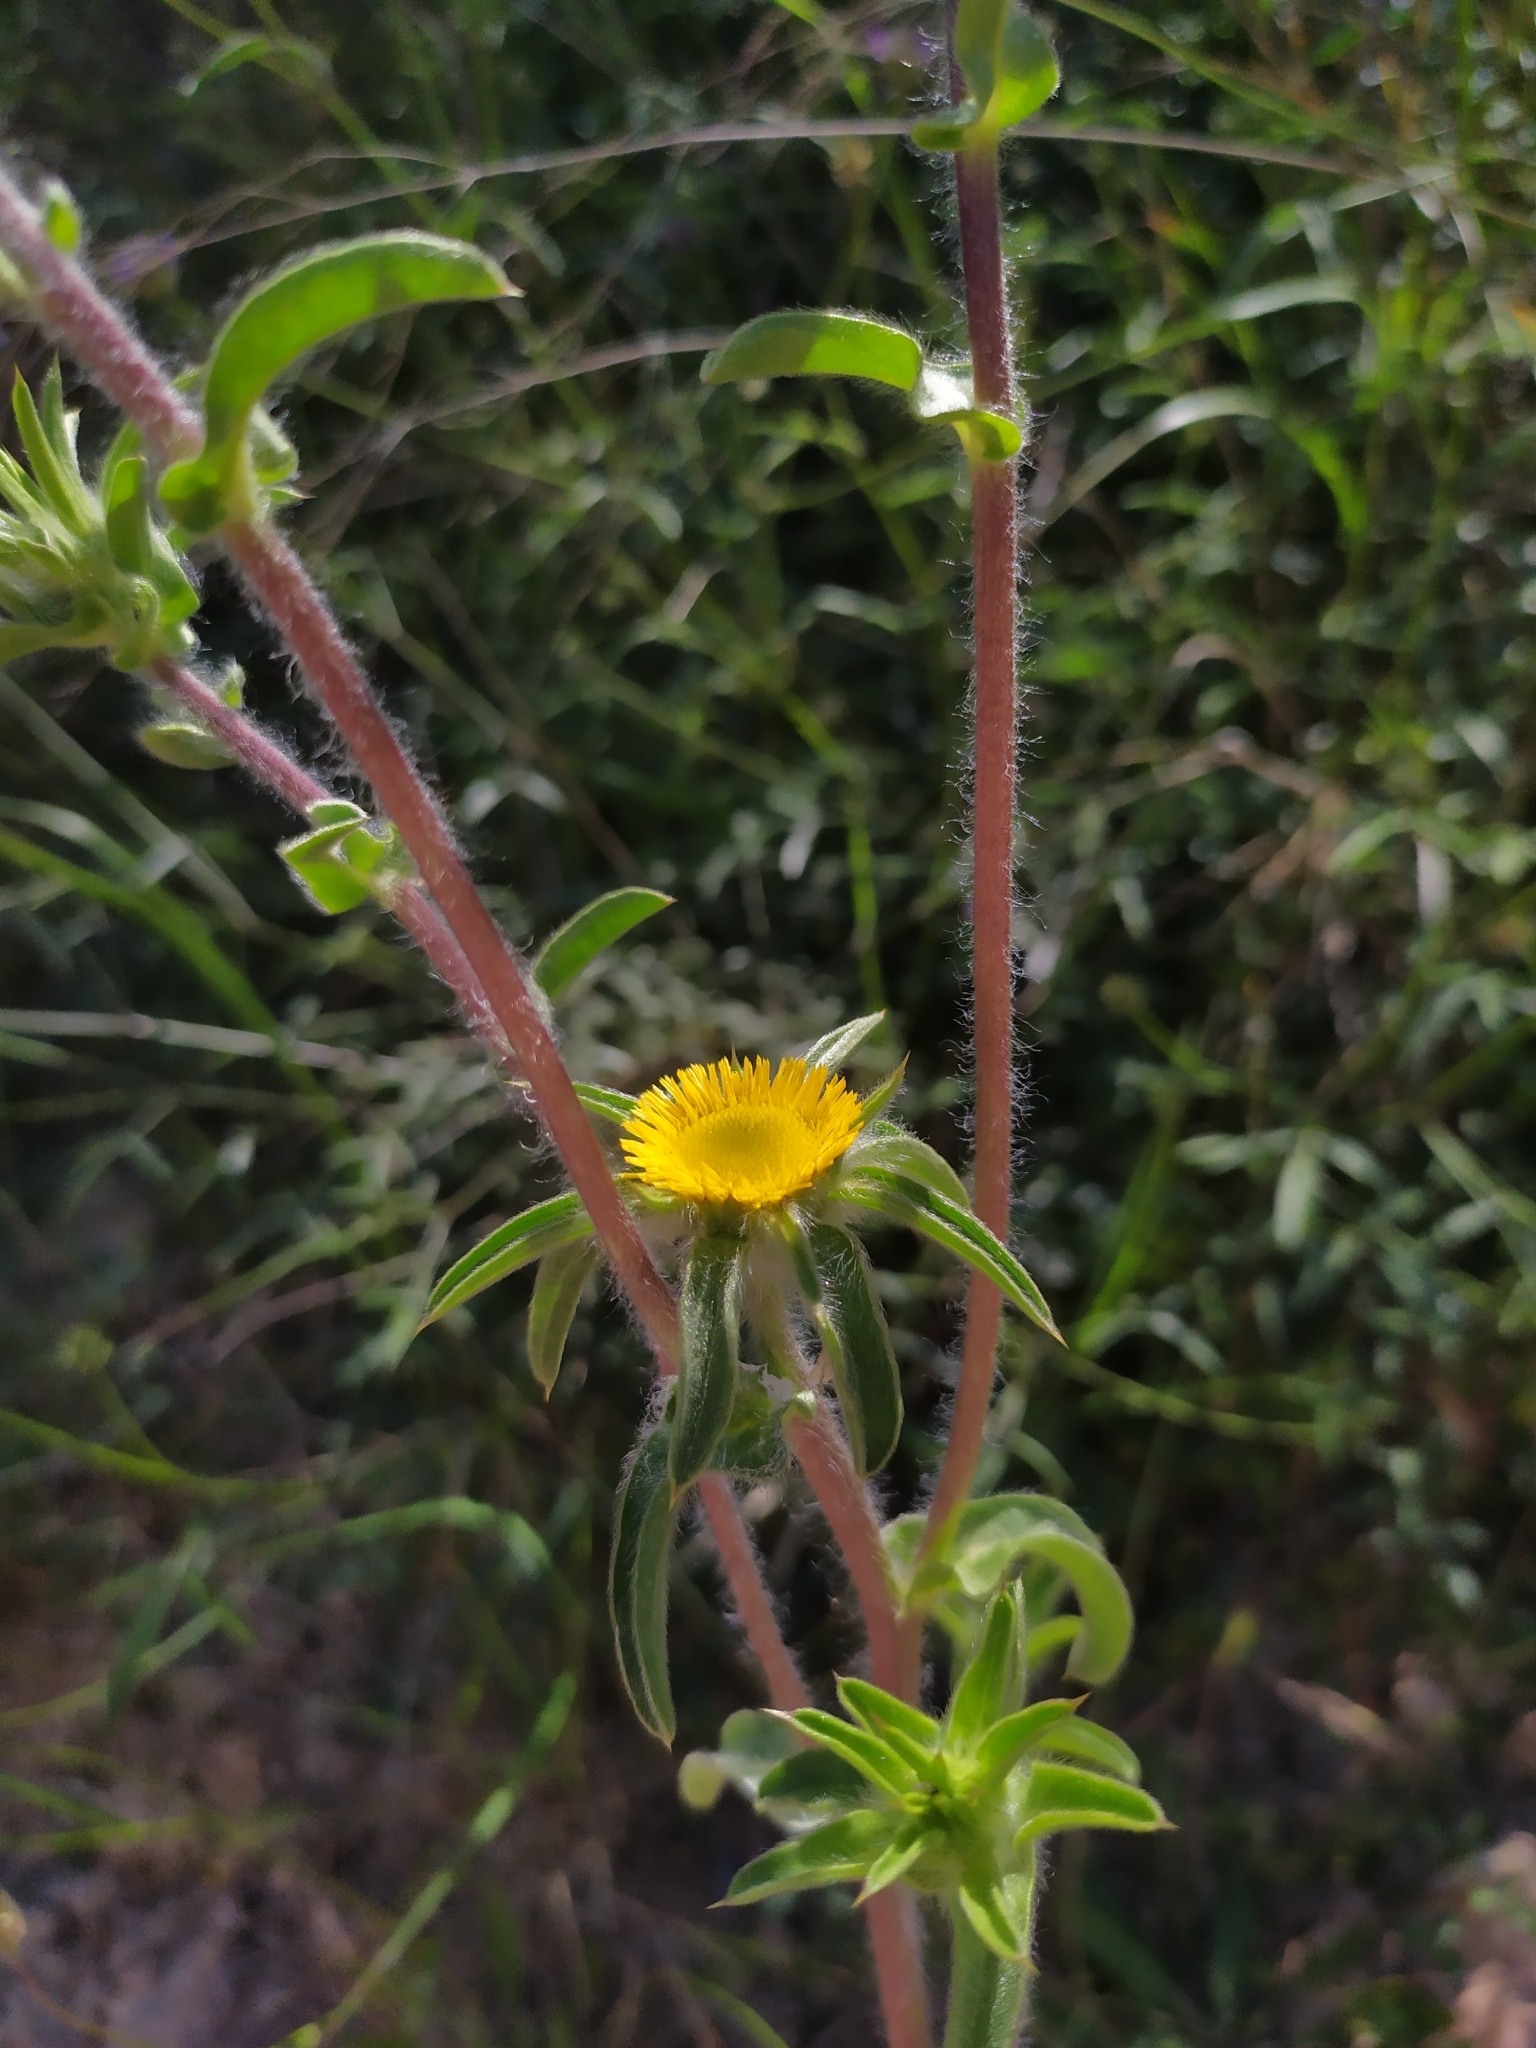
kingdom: Plantae
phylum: Tracheophyta
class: Magnoliopsida
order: Asterales
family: Asteraceae
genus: Pallenis
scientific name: Pallenis spinosa
